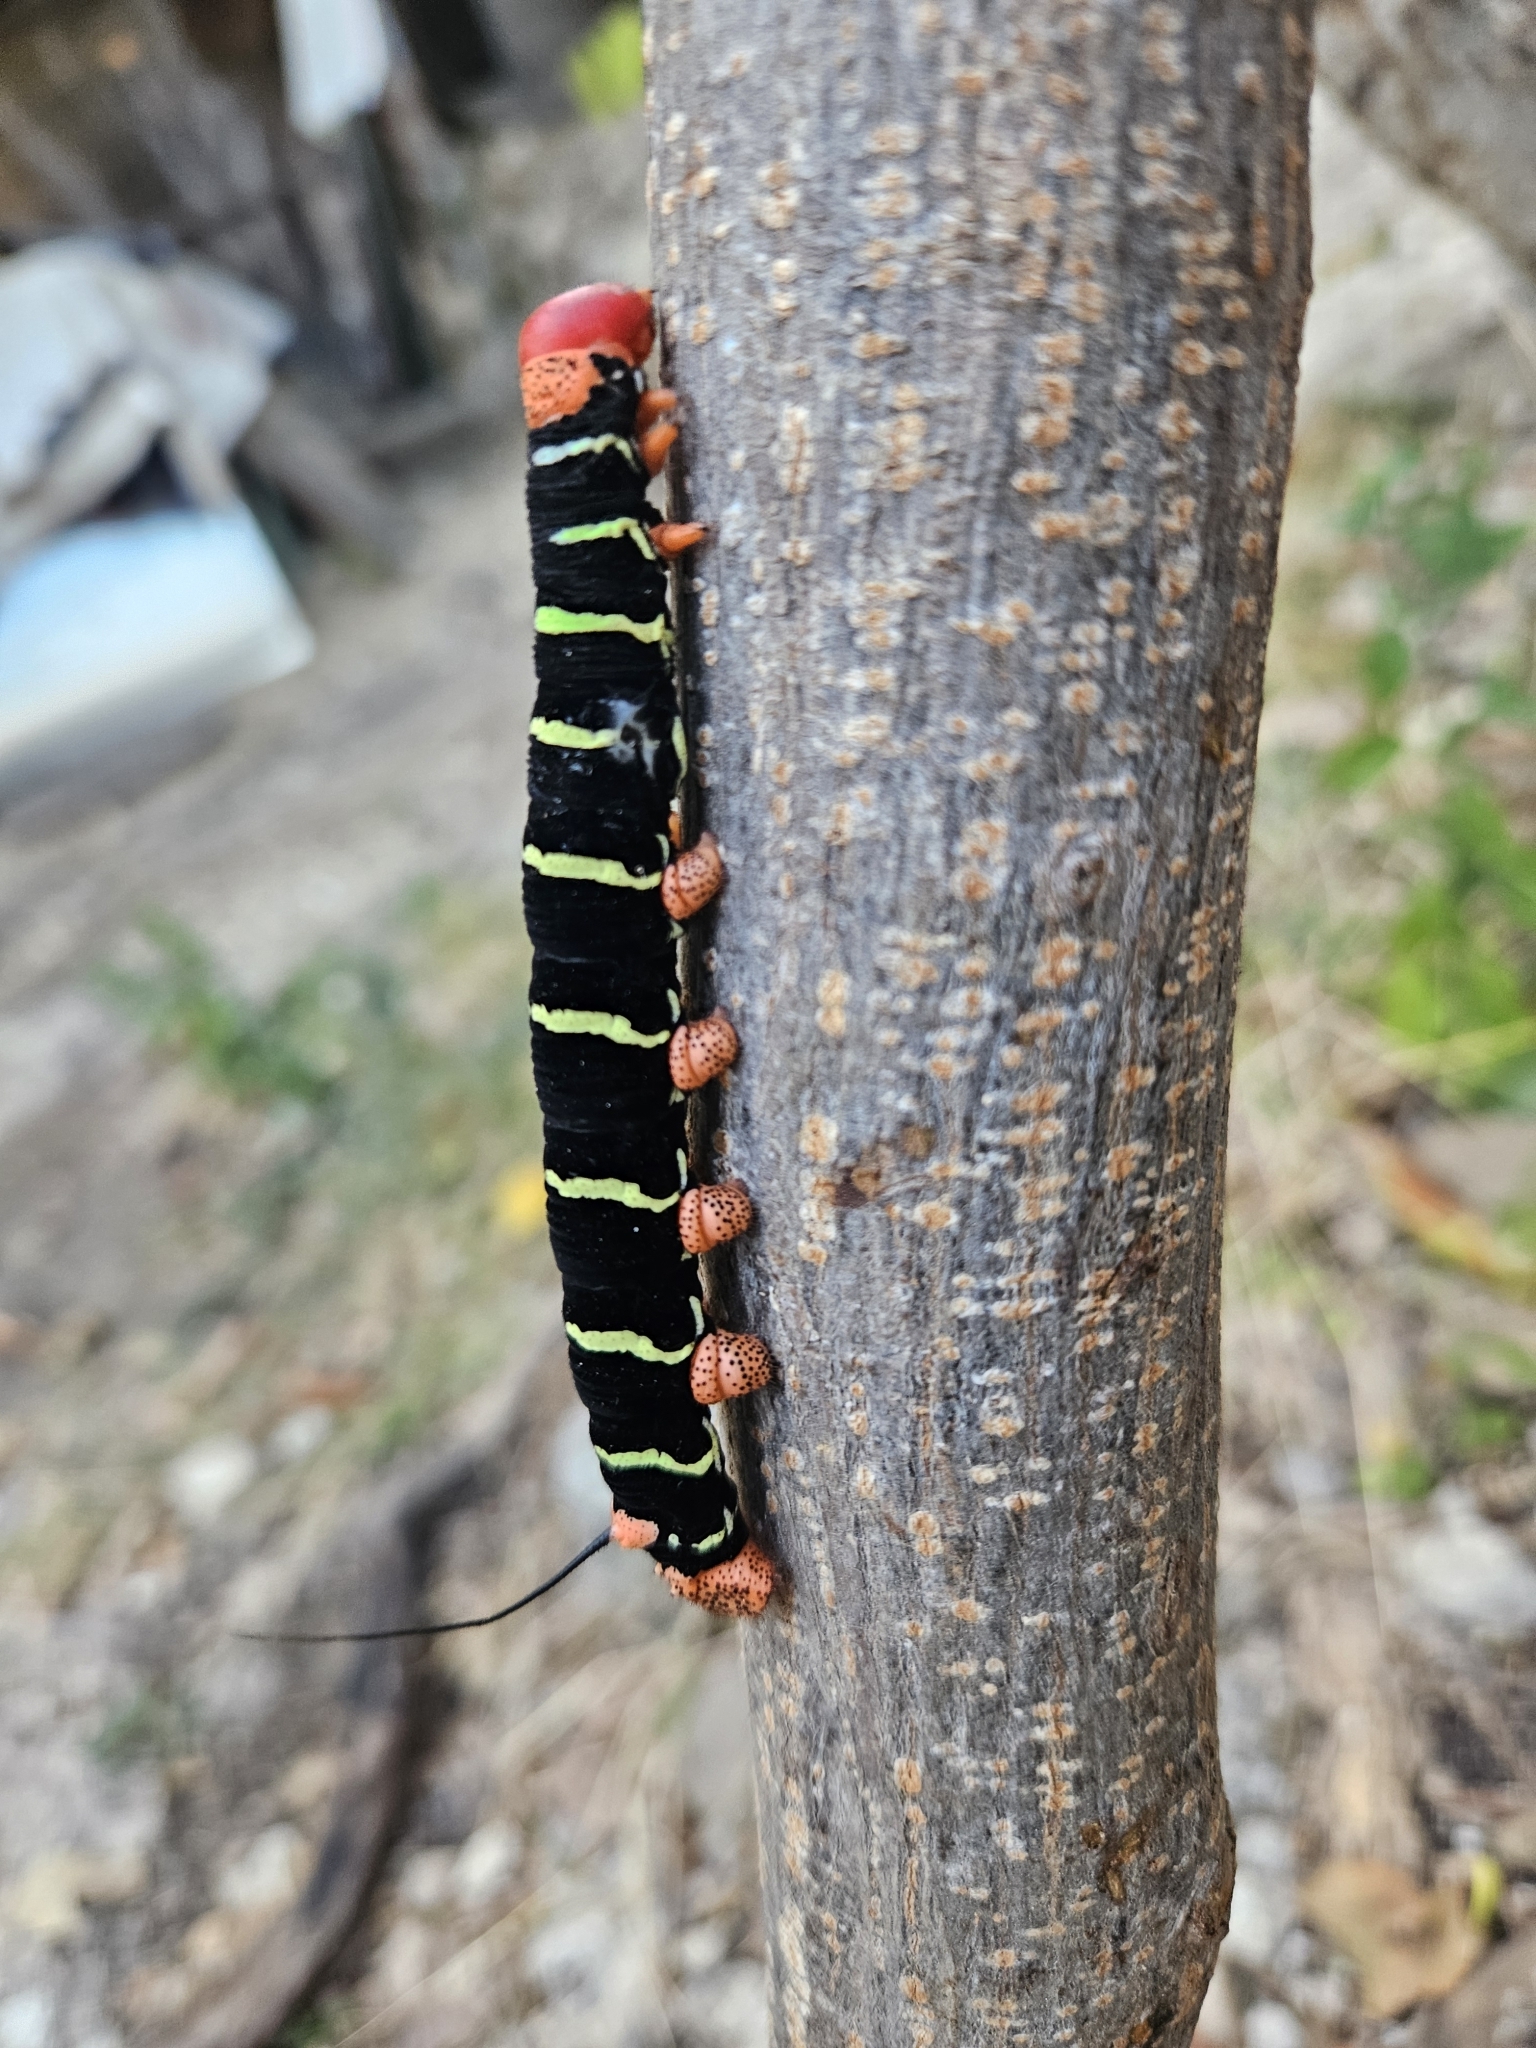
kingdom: Animalia
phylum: Arthropoda
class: Insecta
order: Lepidoptera
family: Sphingidae
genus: Pseudosphinx
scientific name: Pseudosphinx tetrio
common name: Tetrio sphinx
